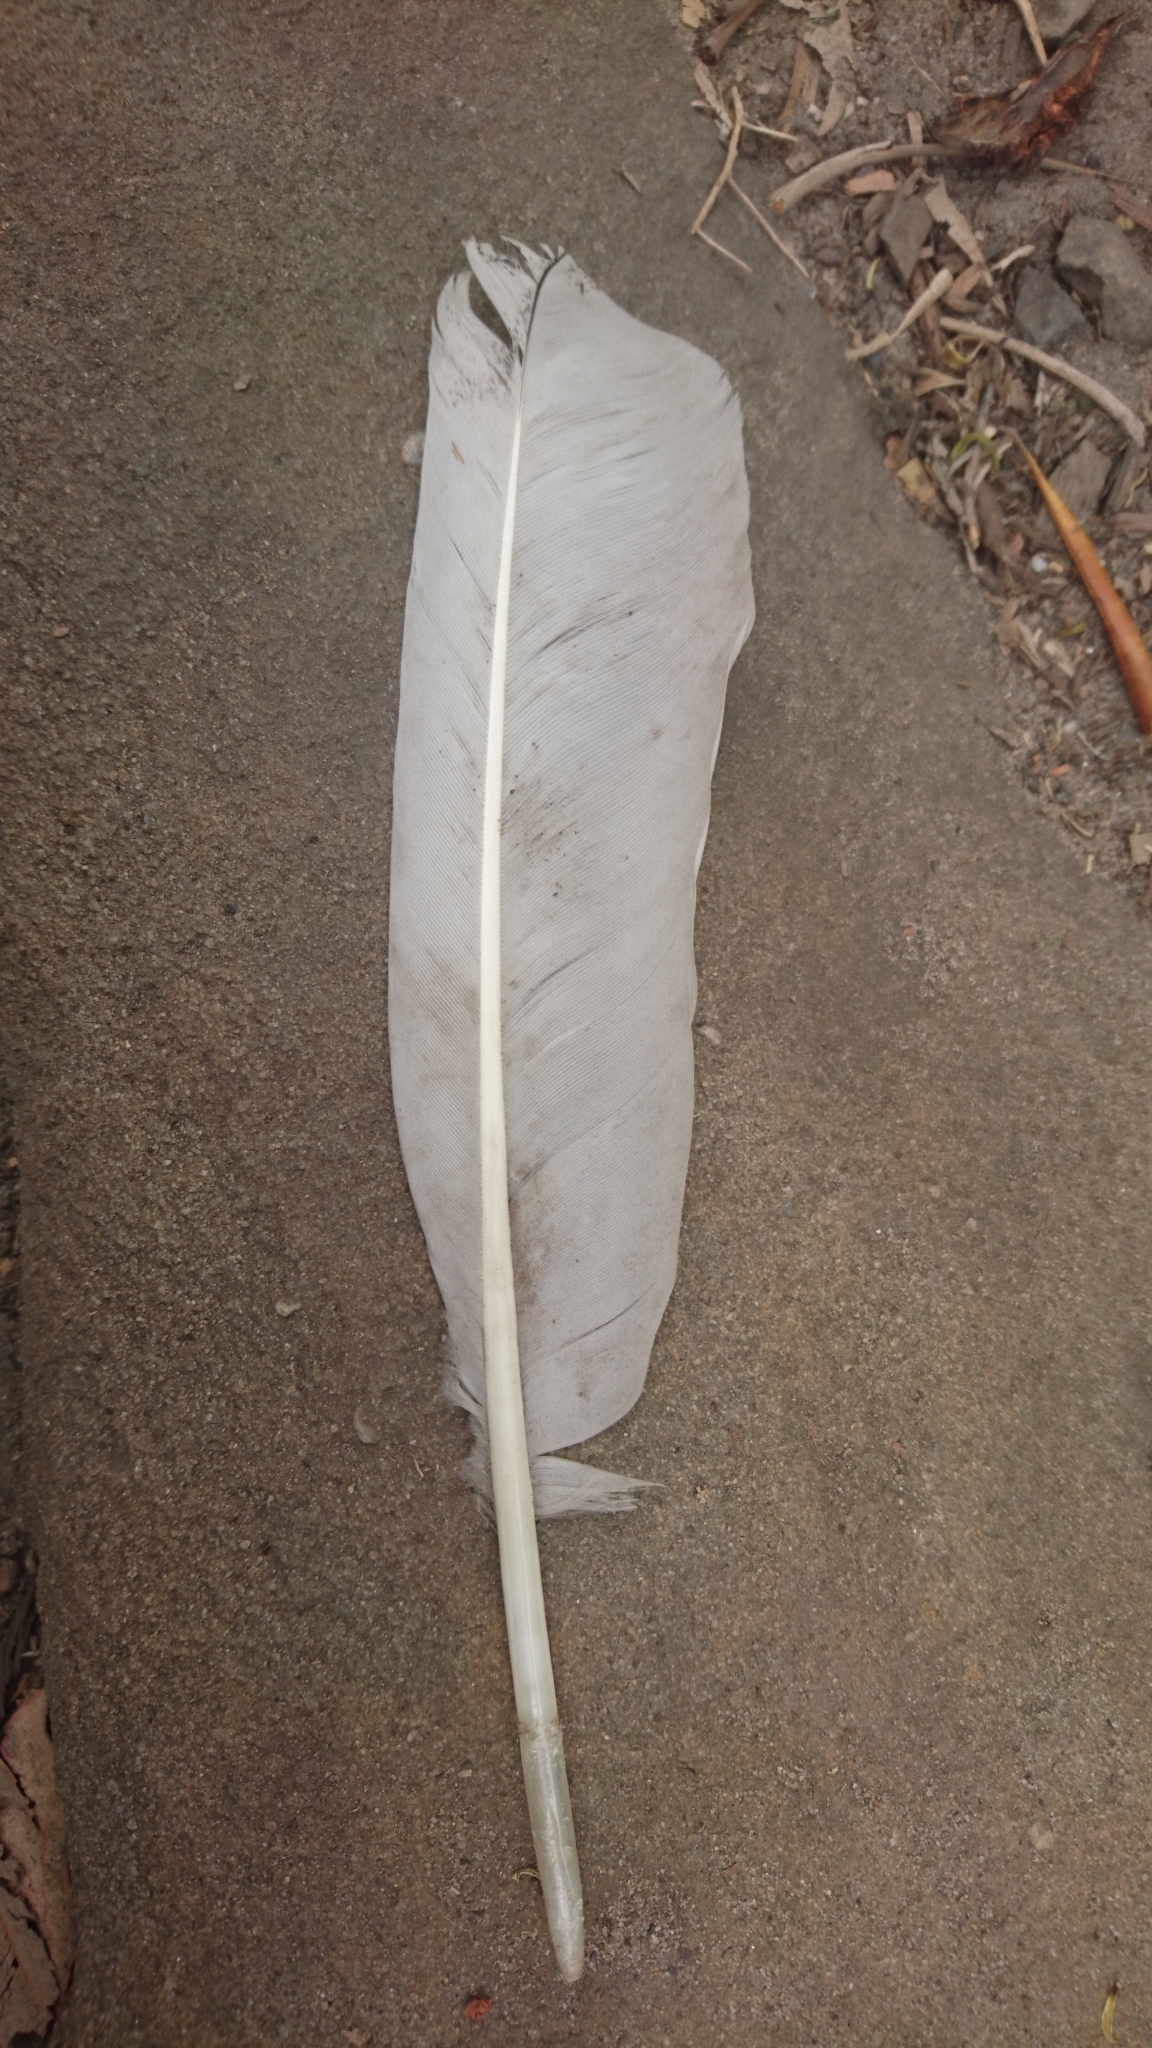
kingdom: Animalia
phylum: Chordata
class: Aves
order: Pelecaniformes
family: Threskiornithidae
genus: Threskiornis
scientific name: Threskiornis molucca
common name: Australian white ibis
